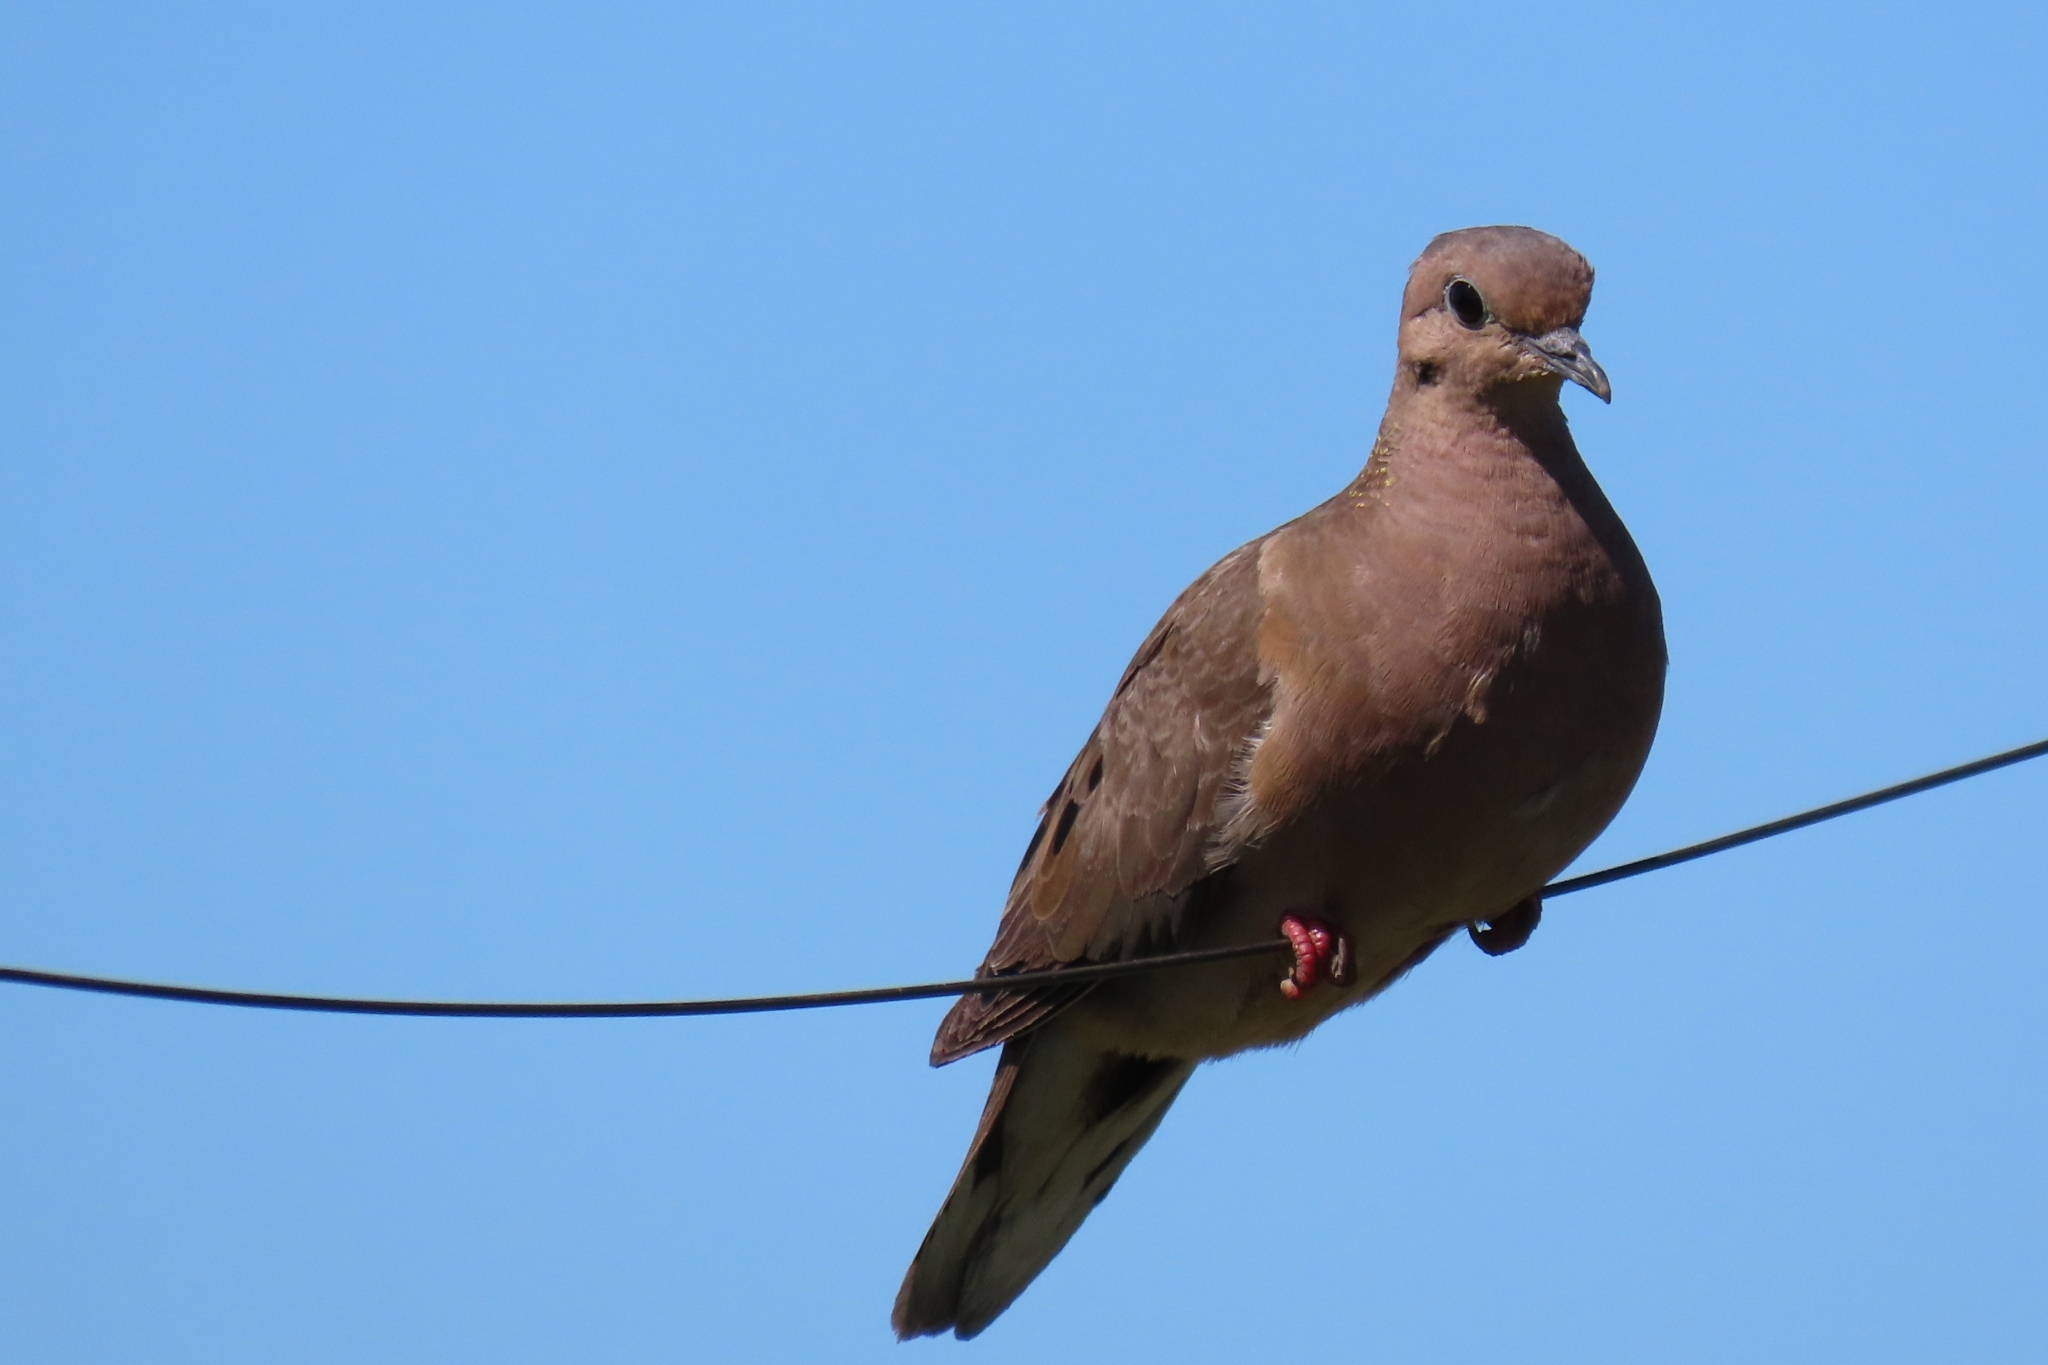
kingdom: Animalia
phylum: Chordata
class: Aves
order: Columbiformes
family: Columbidae
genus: Zenaida
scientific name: Zenaida auriculata
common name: Eared dove
